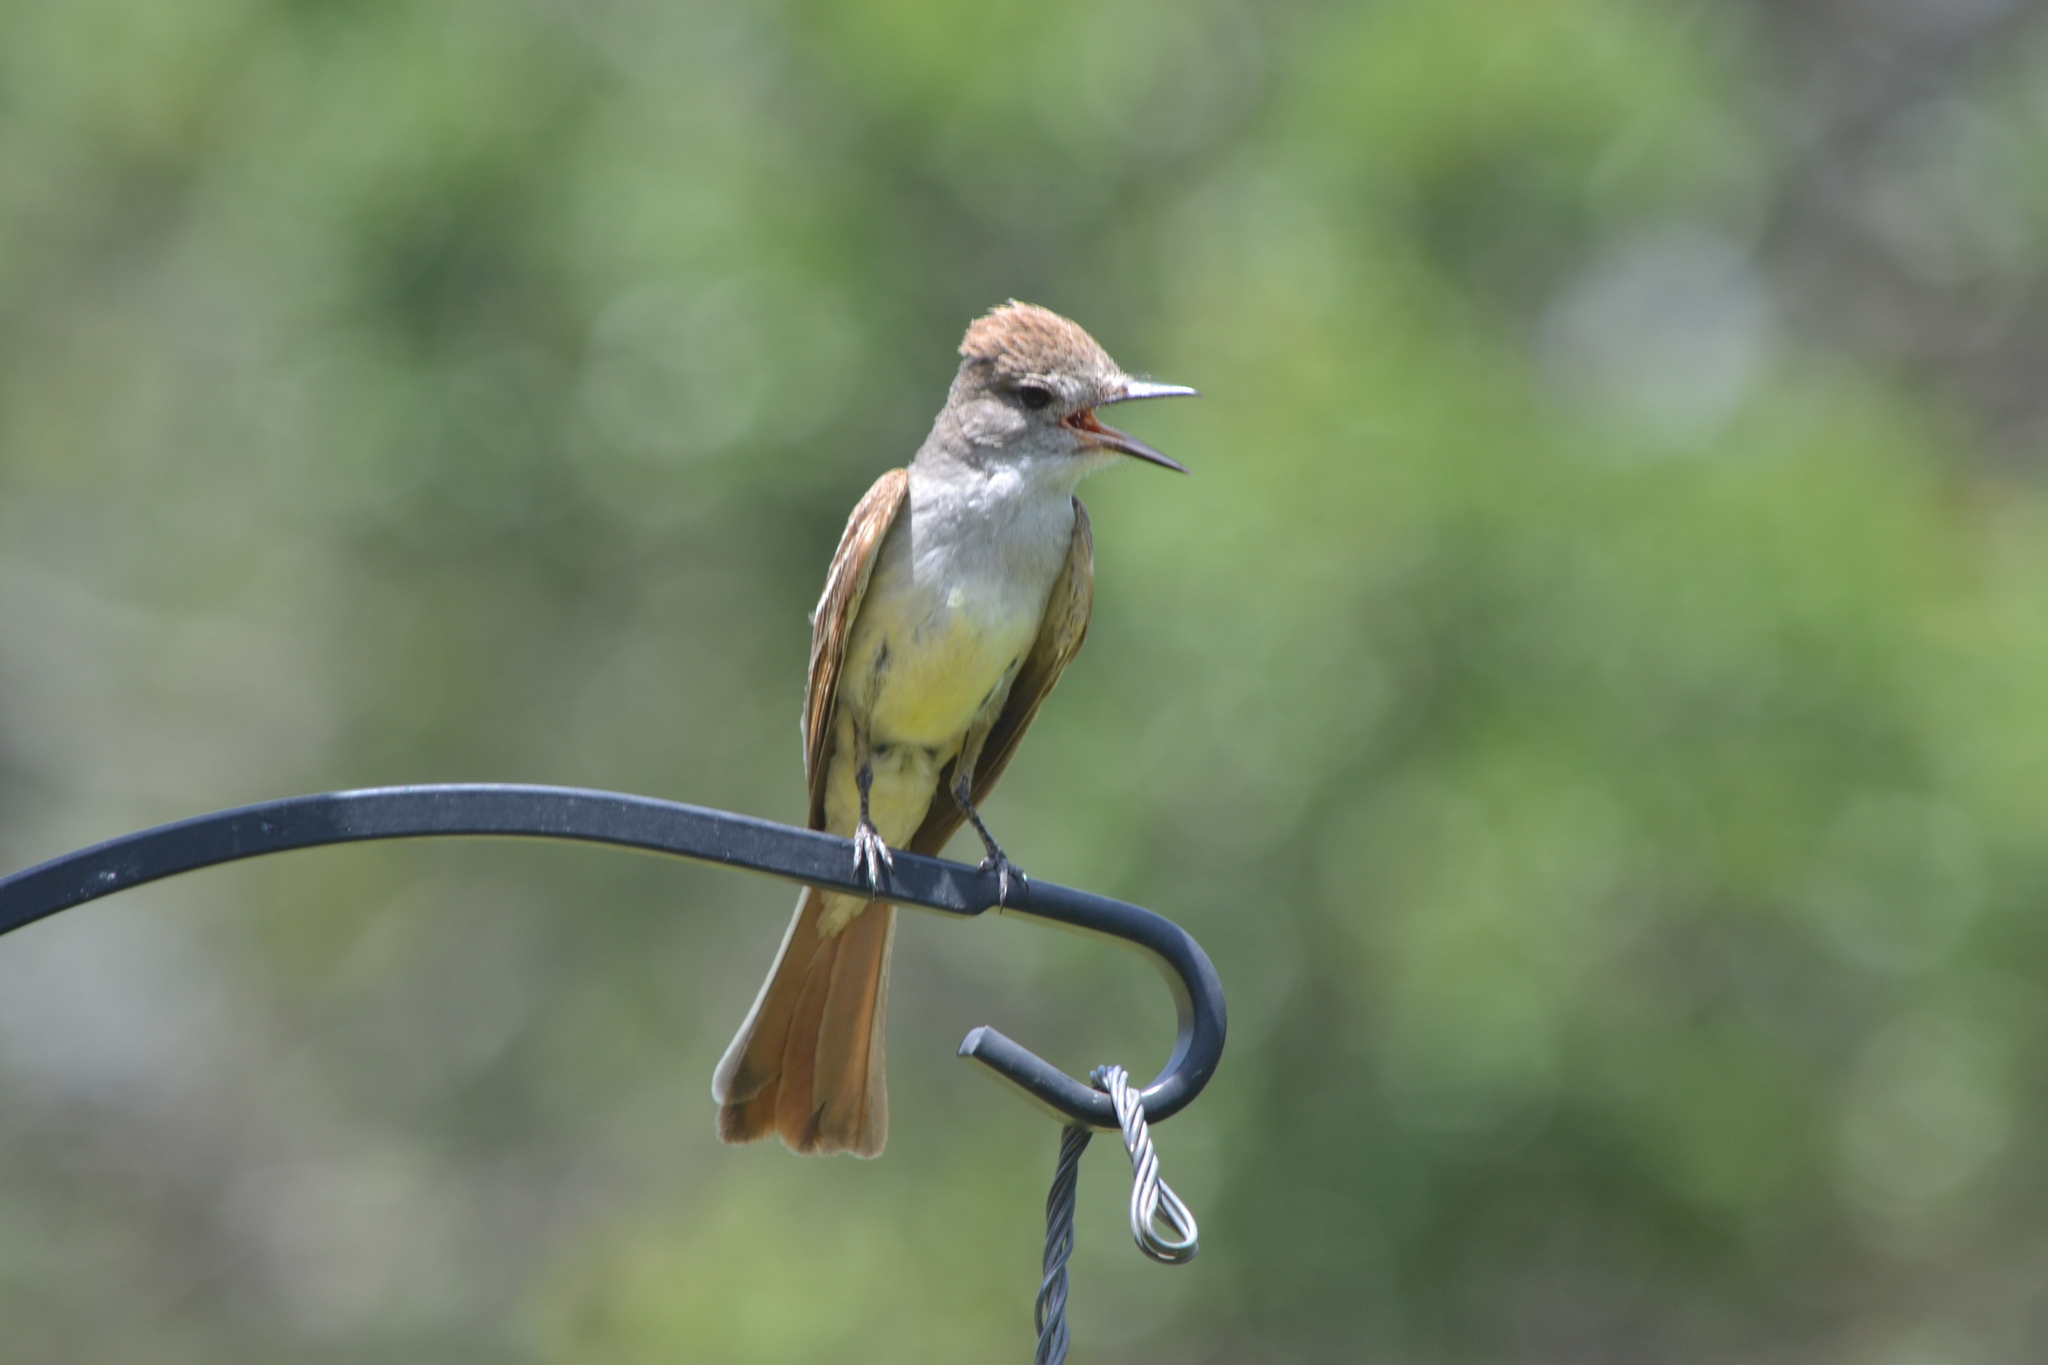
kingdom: Animalia
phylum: Chordata
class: Aves
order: Passeriformes
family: Tyrannidae
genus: Myiarchus
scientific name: Myiarchus cinerascens
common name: Ash-throated flycatcher
